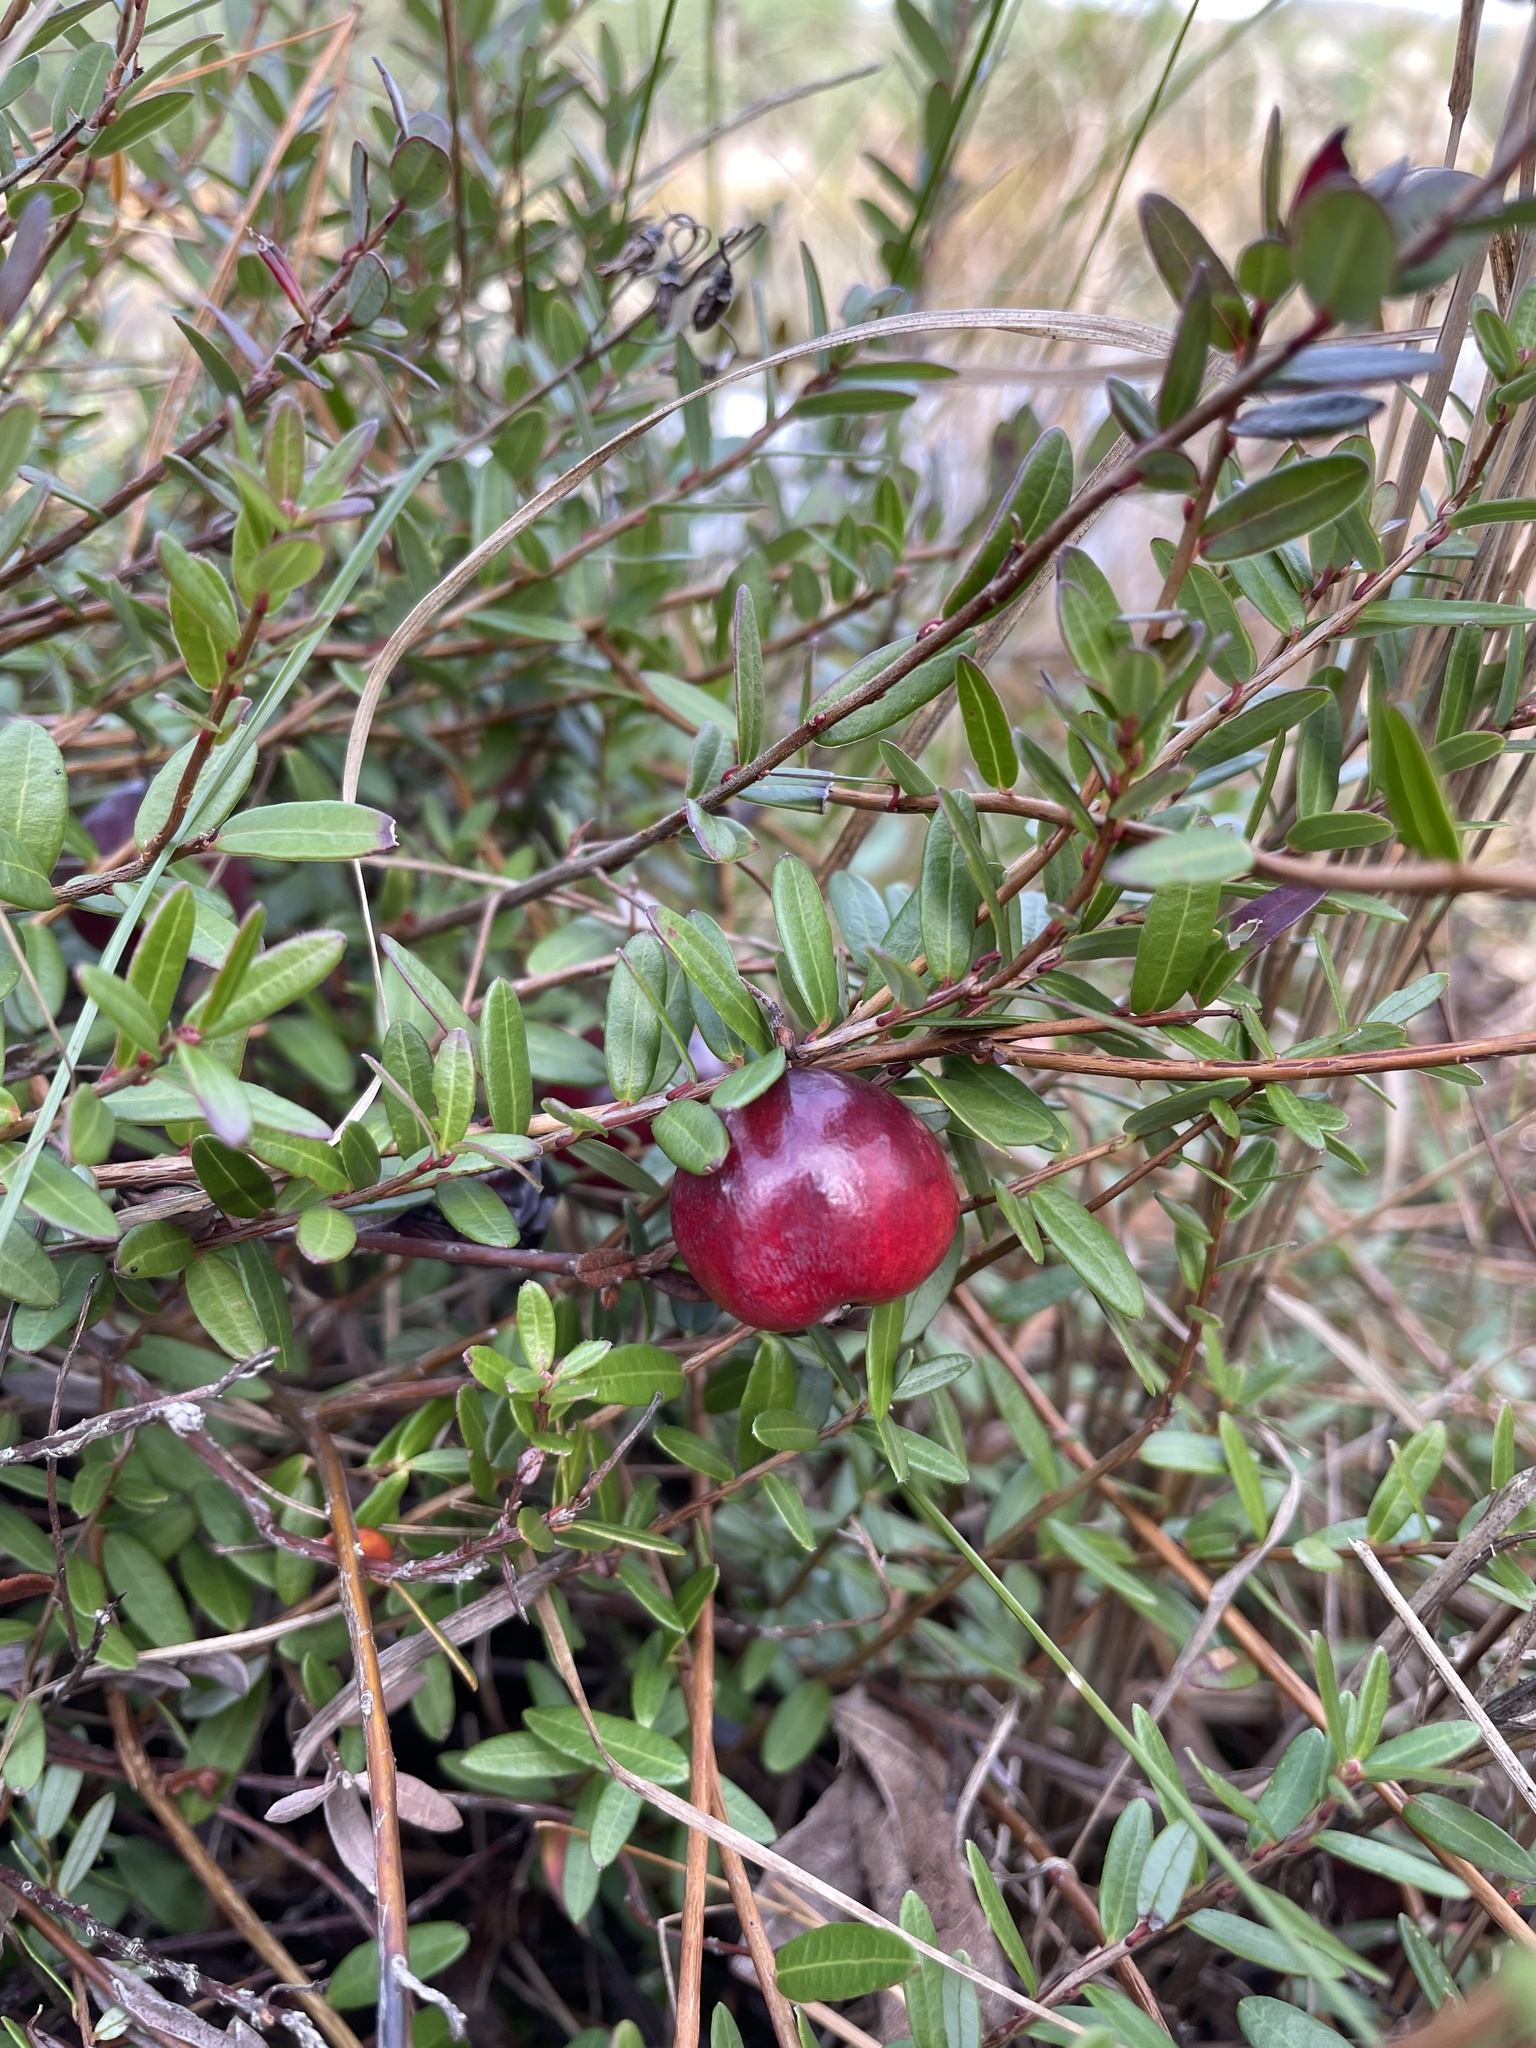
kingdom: Plantae
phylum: Tracheophyta
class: Magnoliopsida
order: Ericales
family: Ericaceae
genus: Vaccinium
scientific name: Vaccinium macrocarpon
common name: American cranberry
